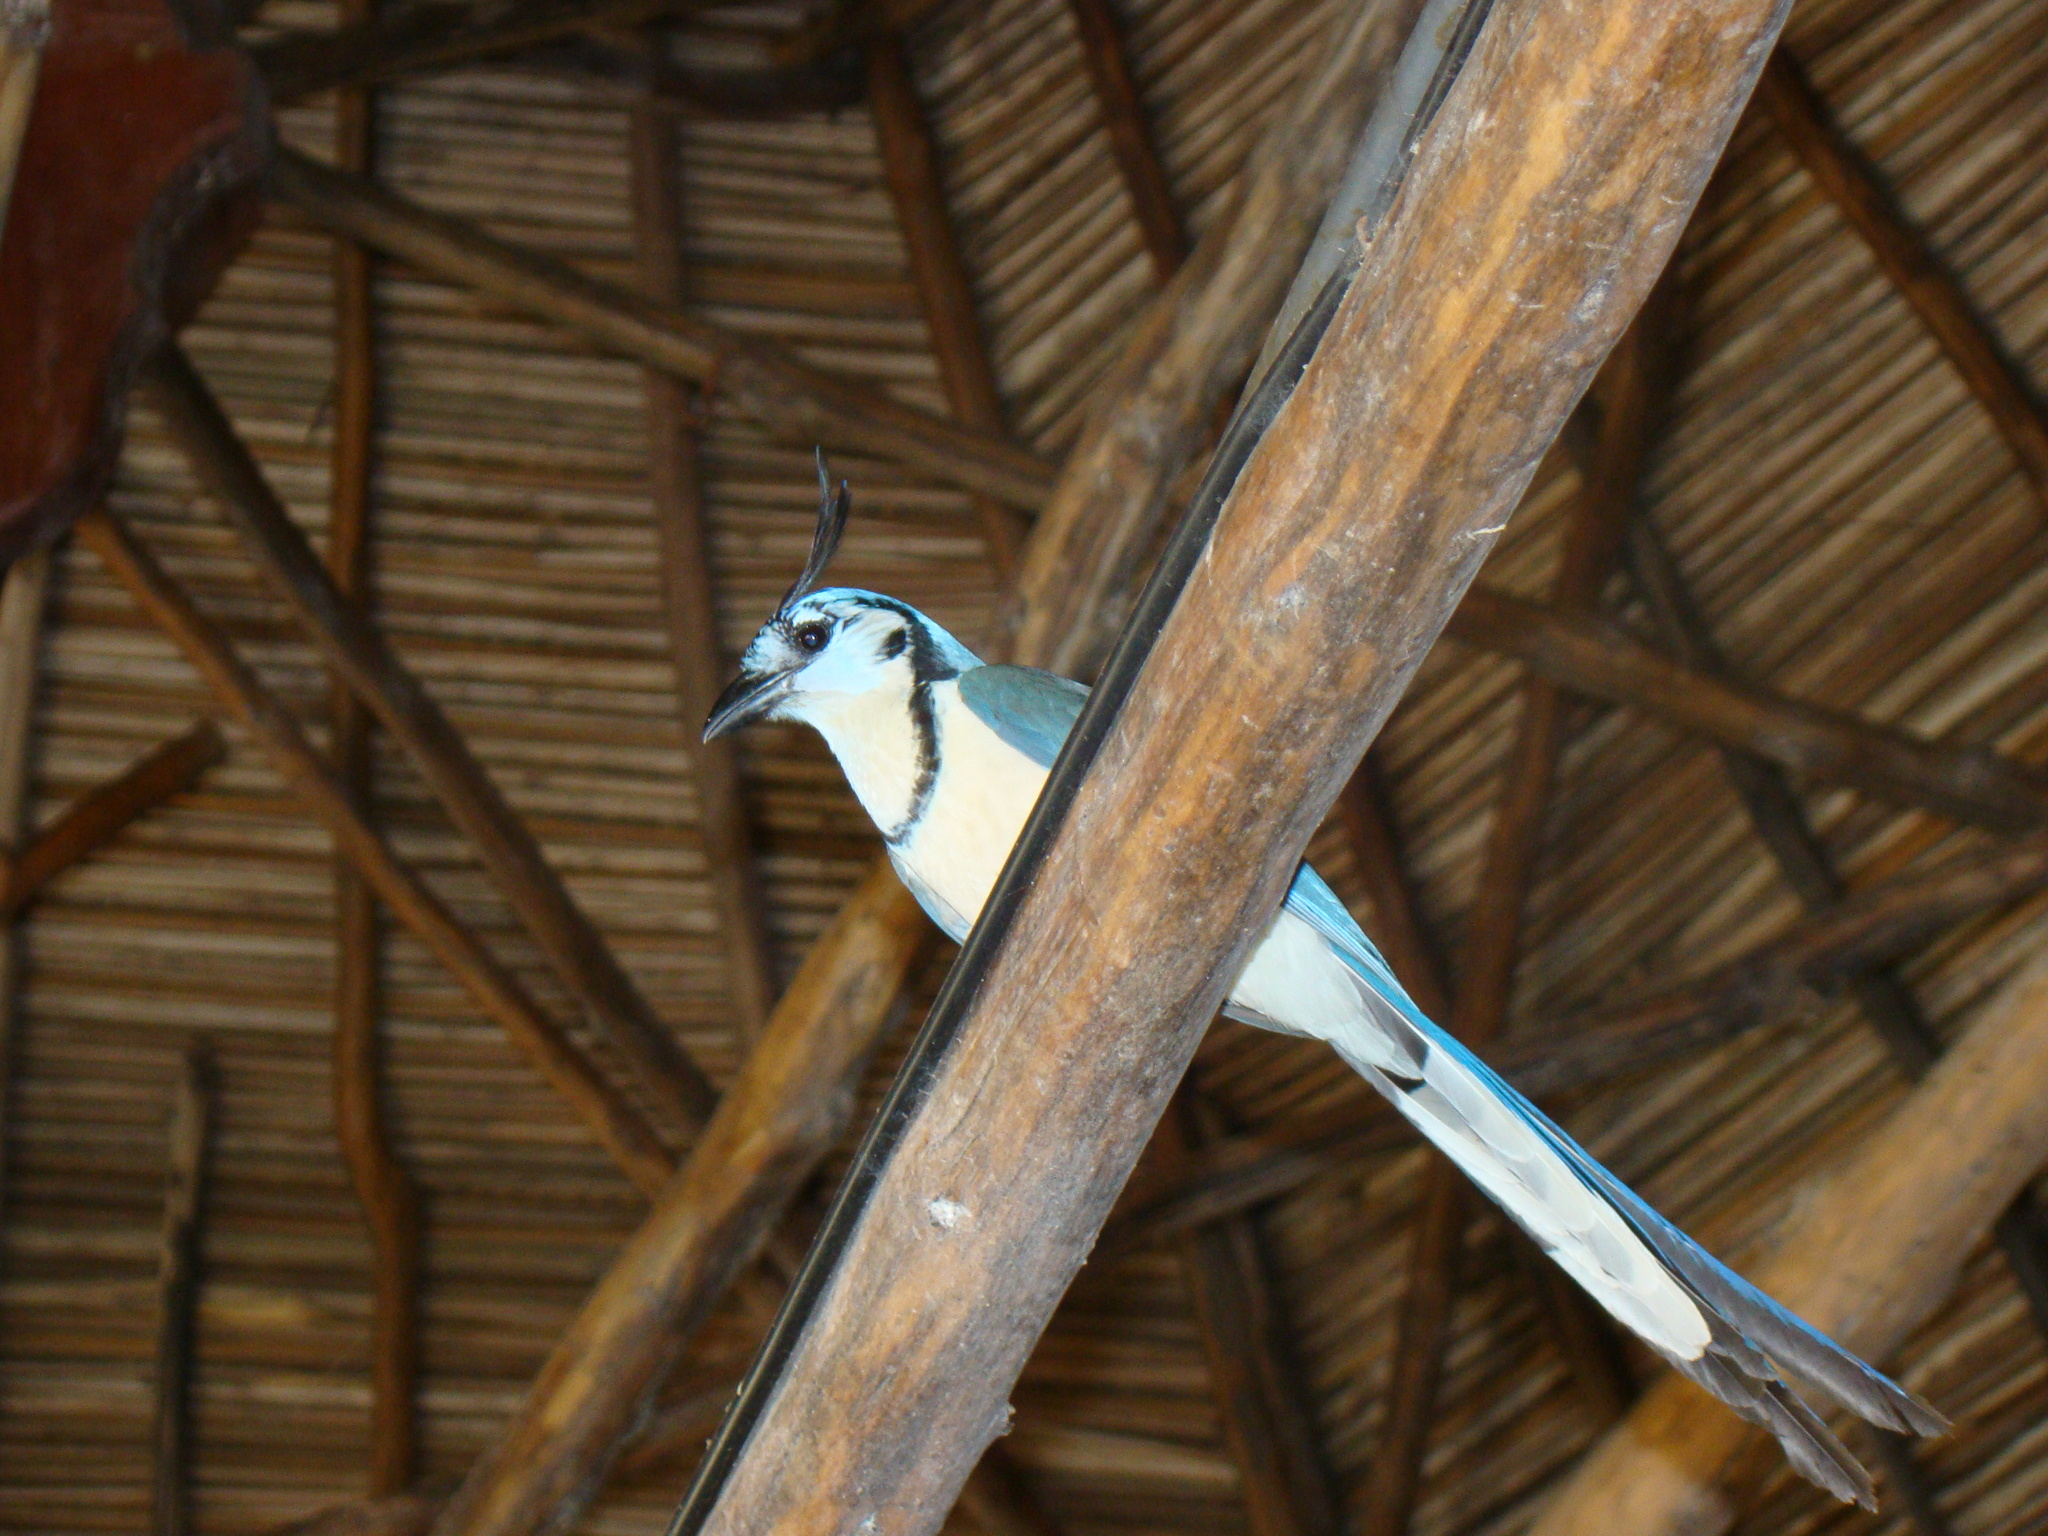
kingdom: Animalia
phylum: Chordata
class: Aves
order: Passeriformes
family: Corvidae
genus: Calocitta
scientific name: Calocitta formosa
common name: White-throated magpie-jay
